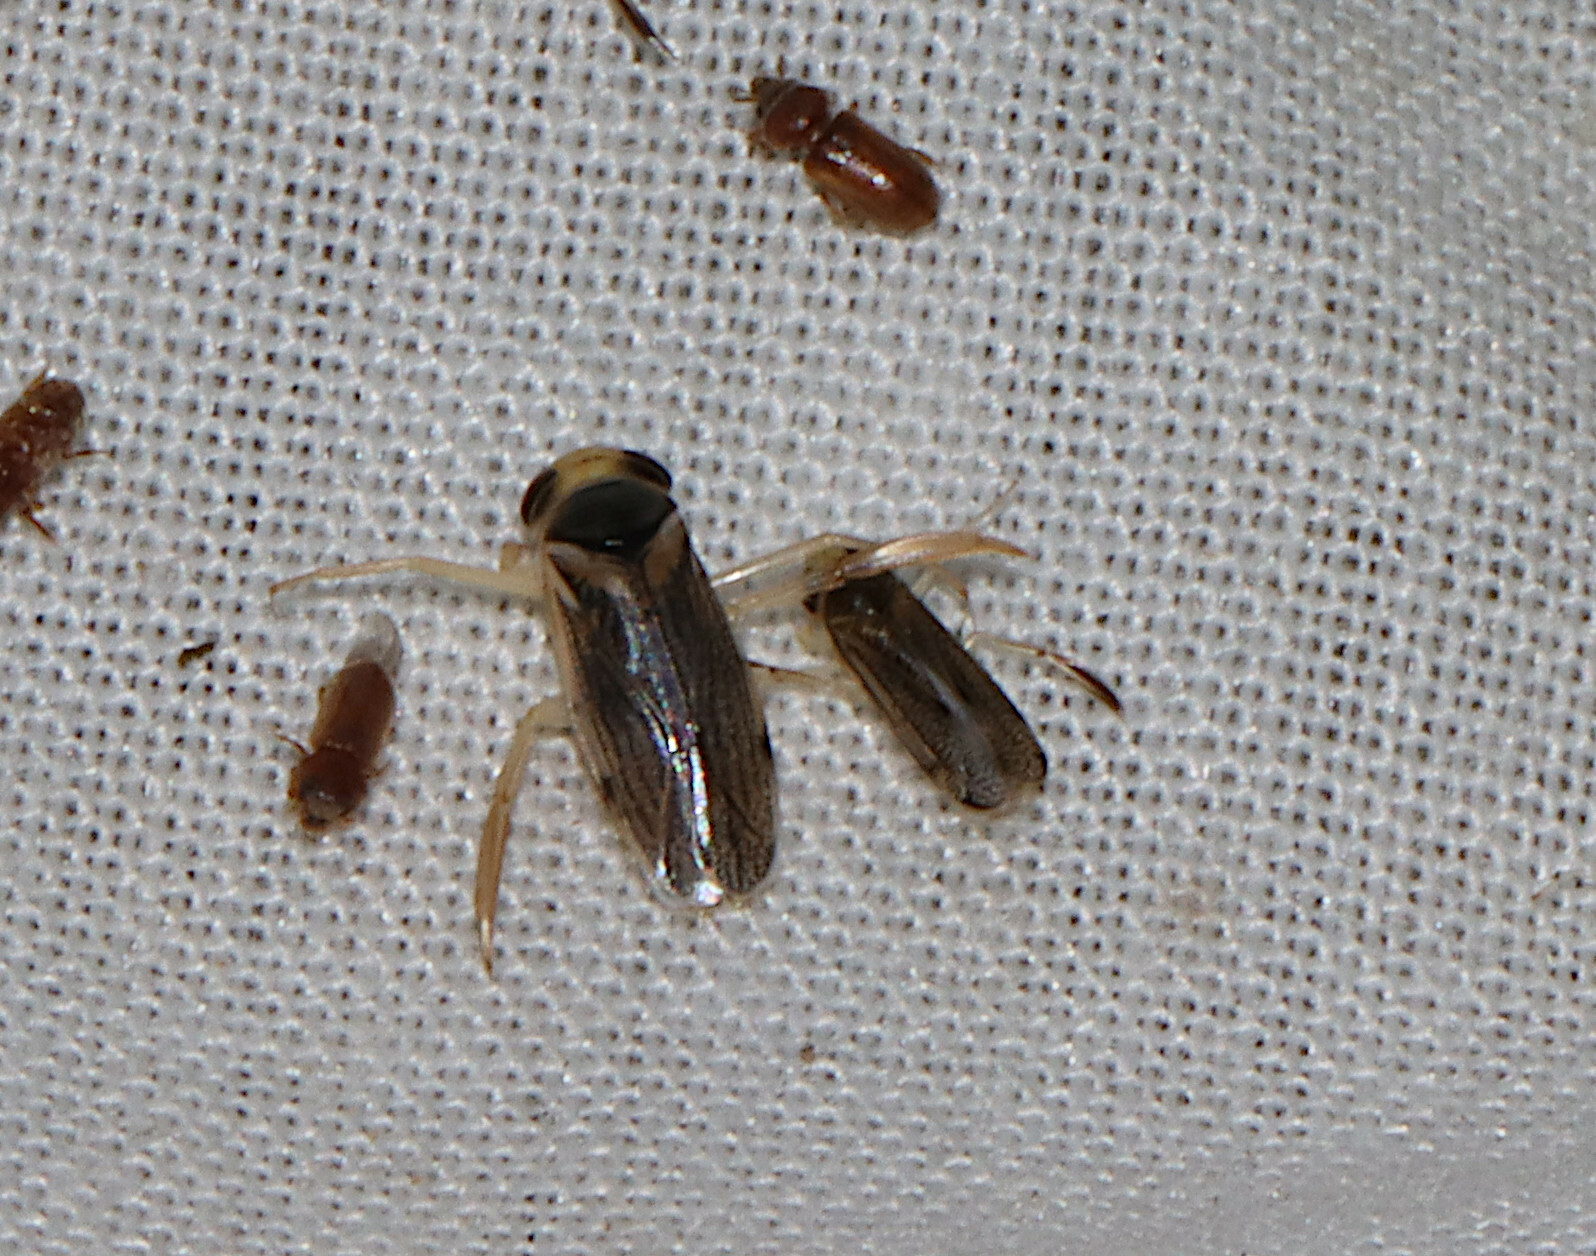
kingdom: Animalia
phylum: Arthropoda
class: Insecta
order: Hemiptera
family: Corixidae
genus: Corisella
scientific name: Corisella edulis
